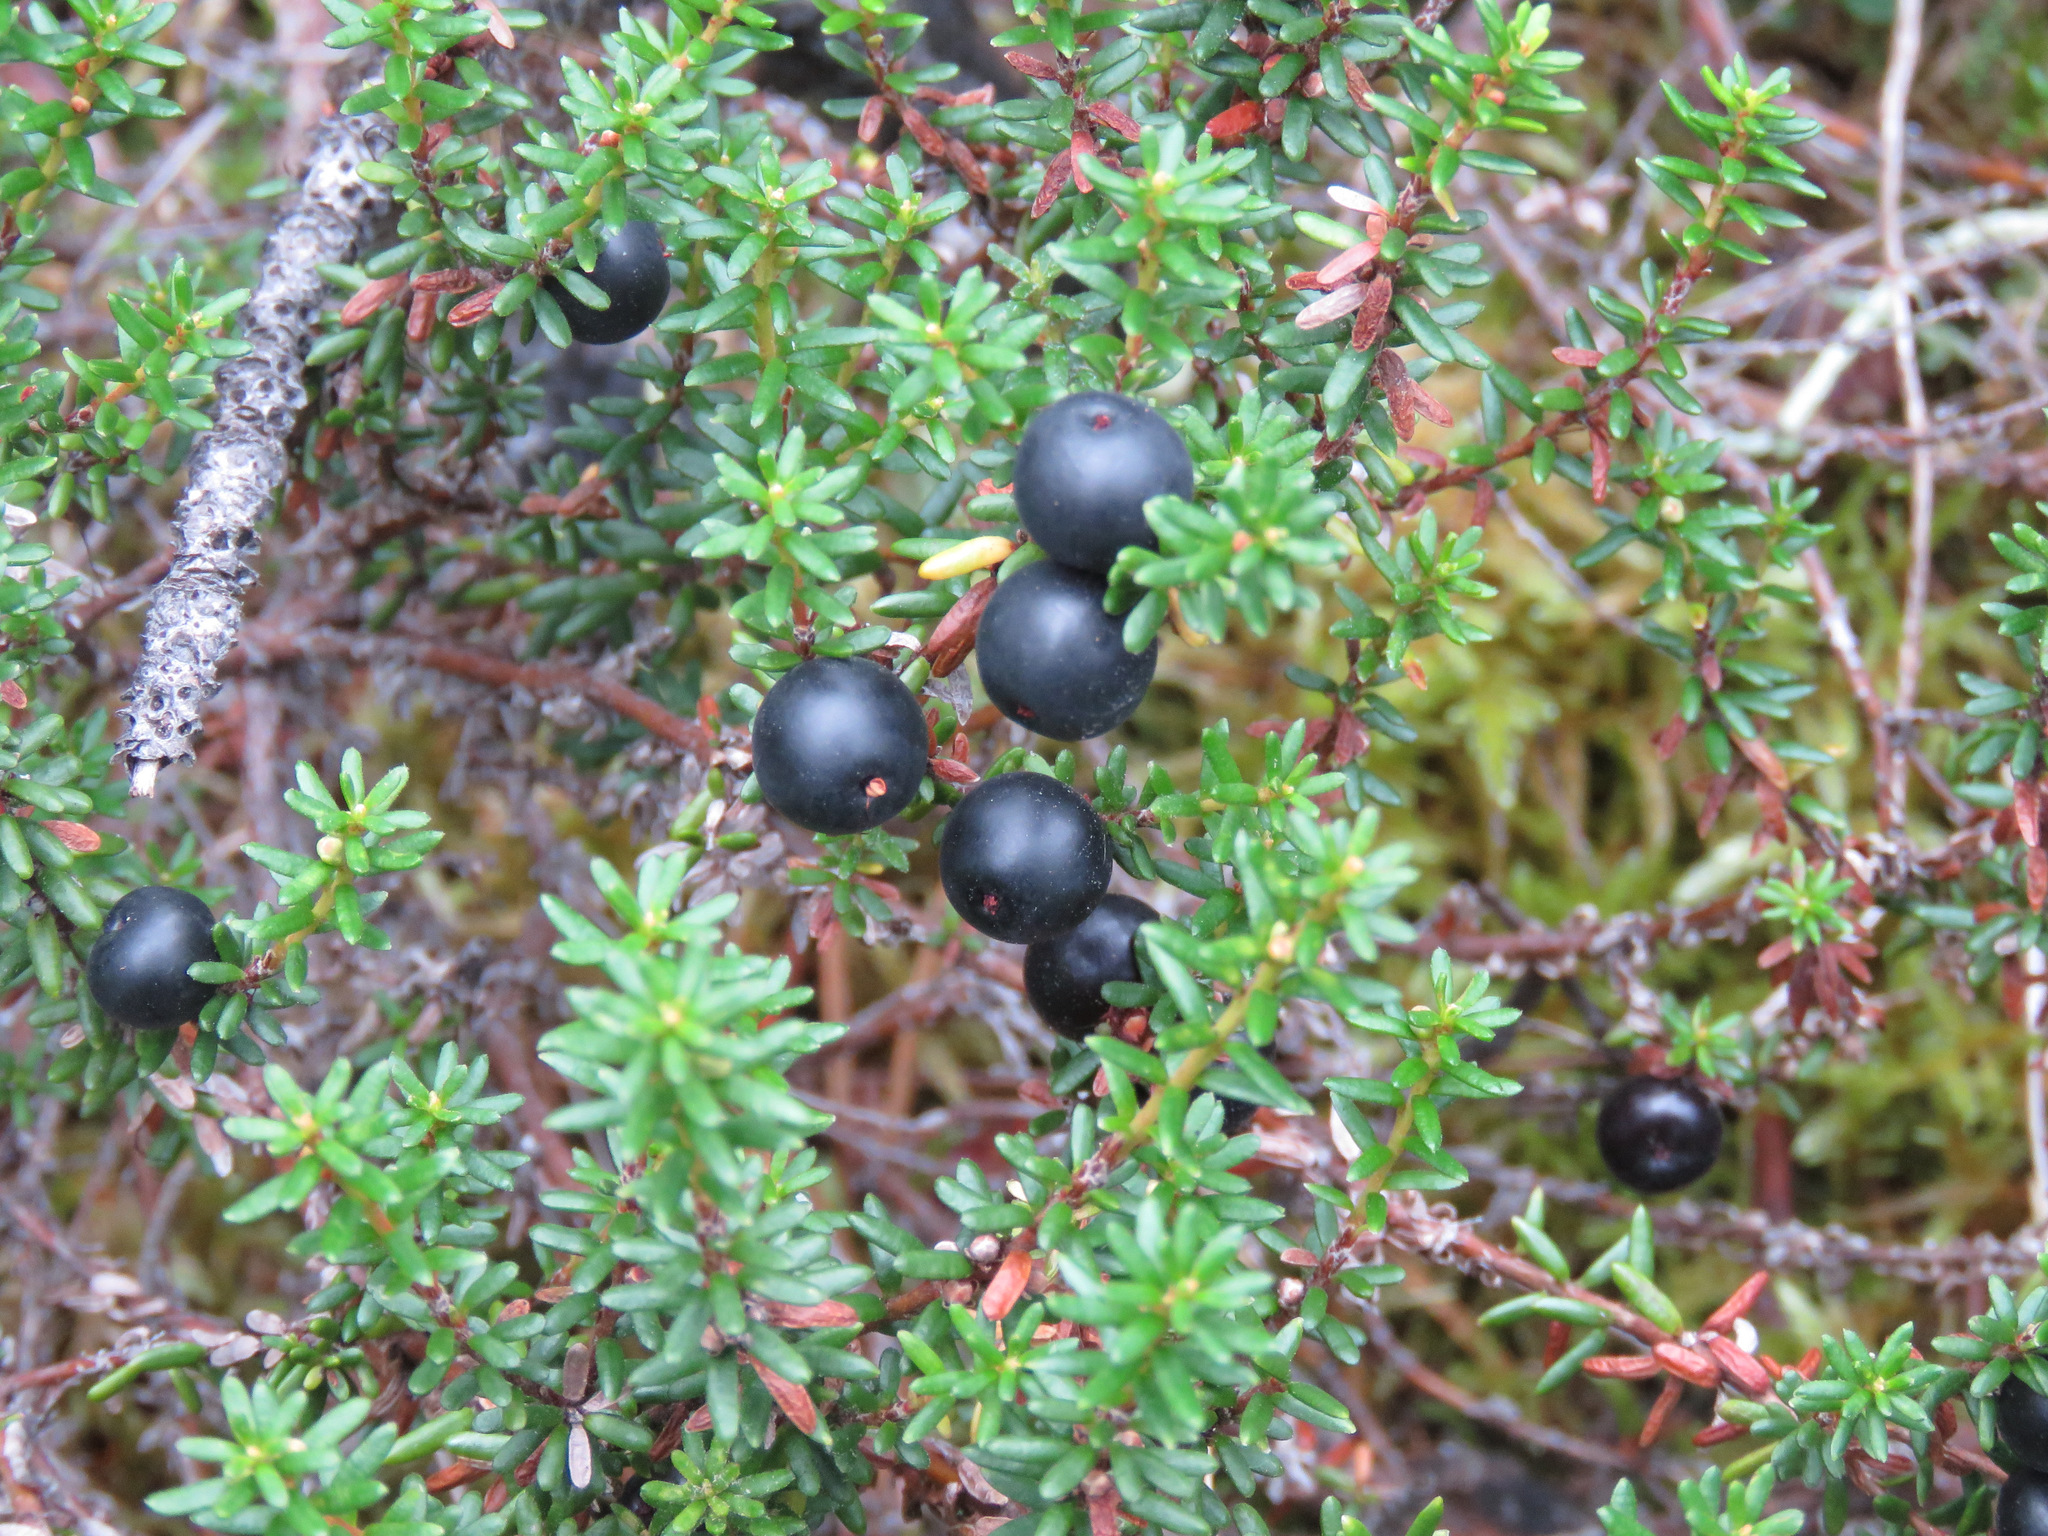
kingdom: Plantae
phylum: Tracheophyta
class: Magnoliopsida
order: Ericales
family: Ericaceae
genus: Empetrum
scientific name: Empetrum nigrum
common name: Black crowberry
